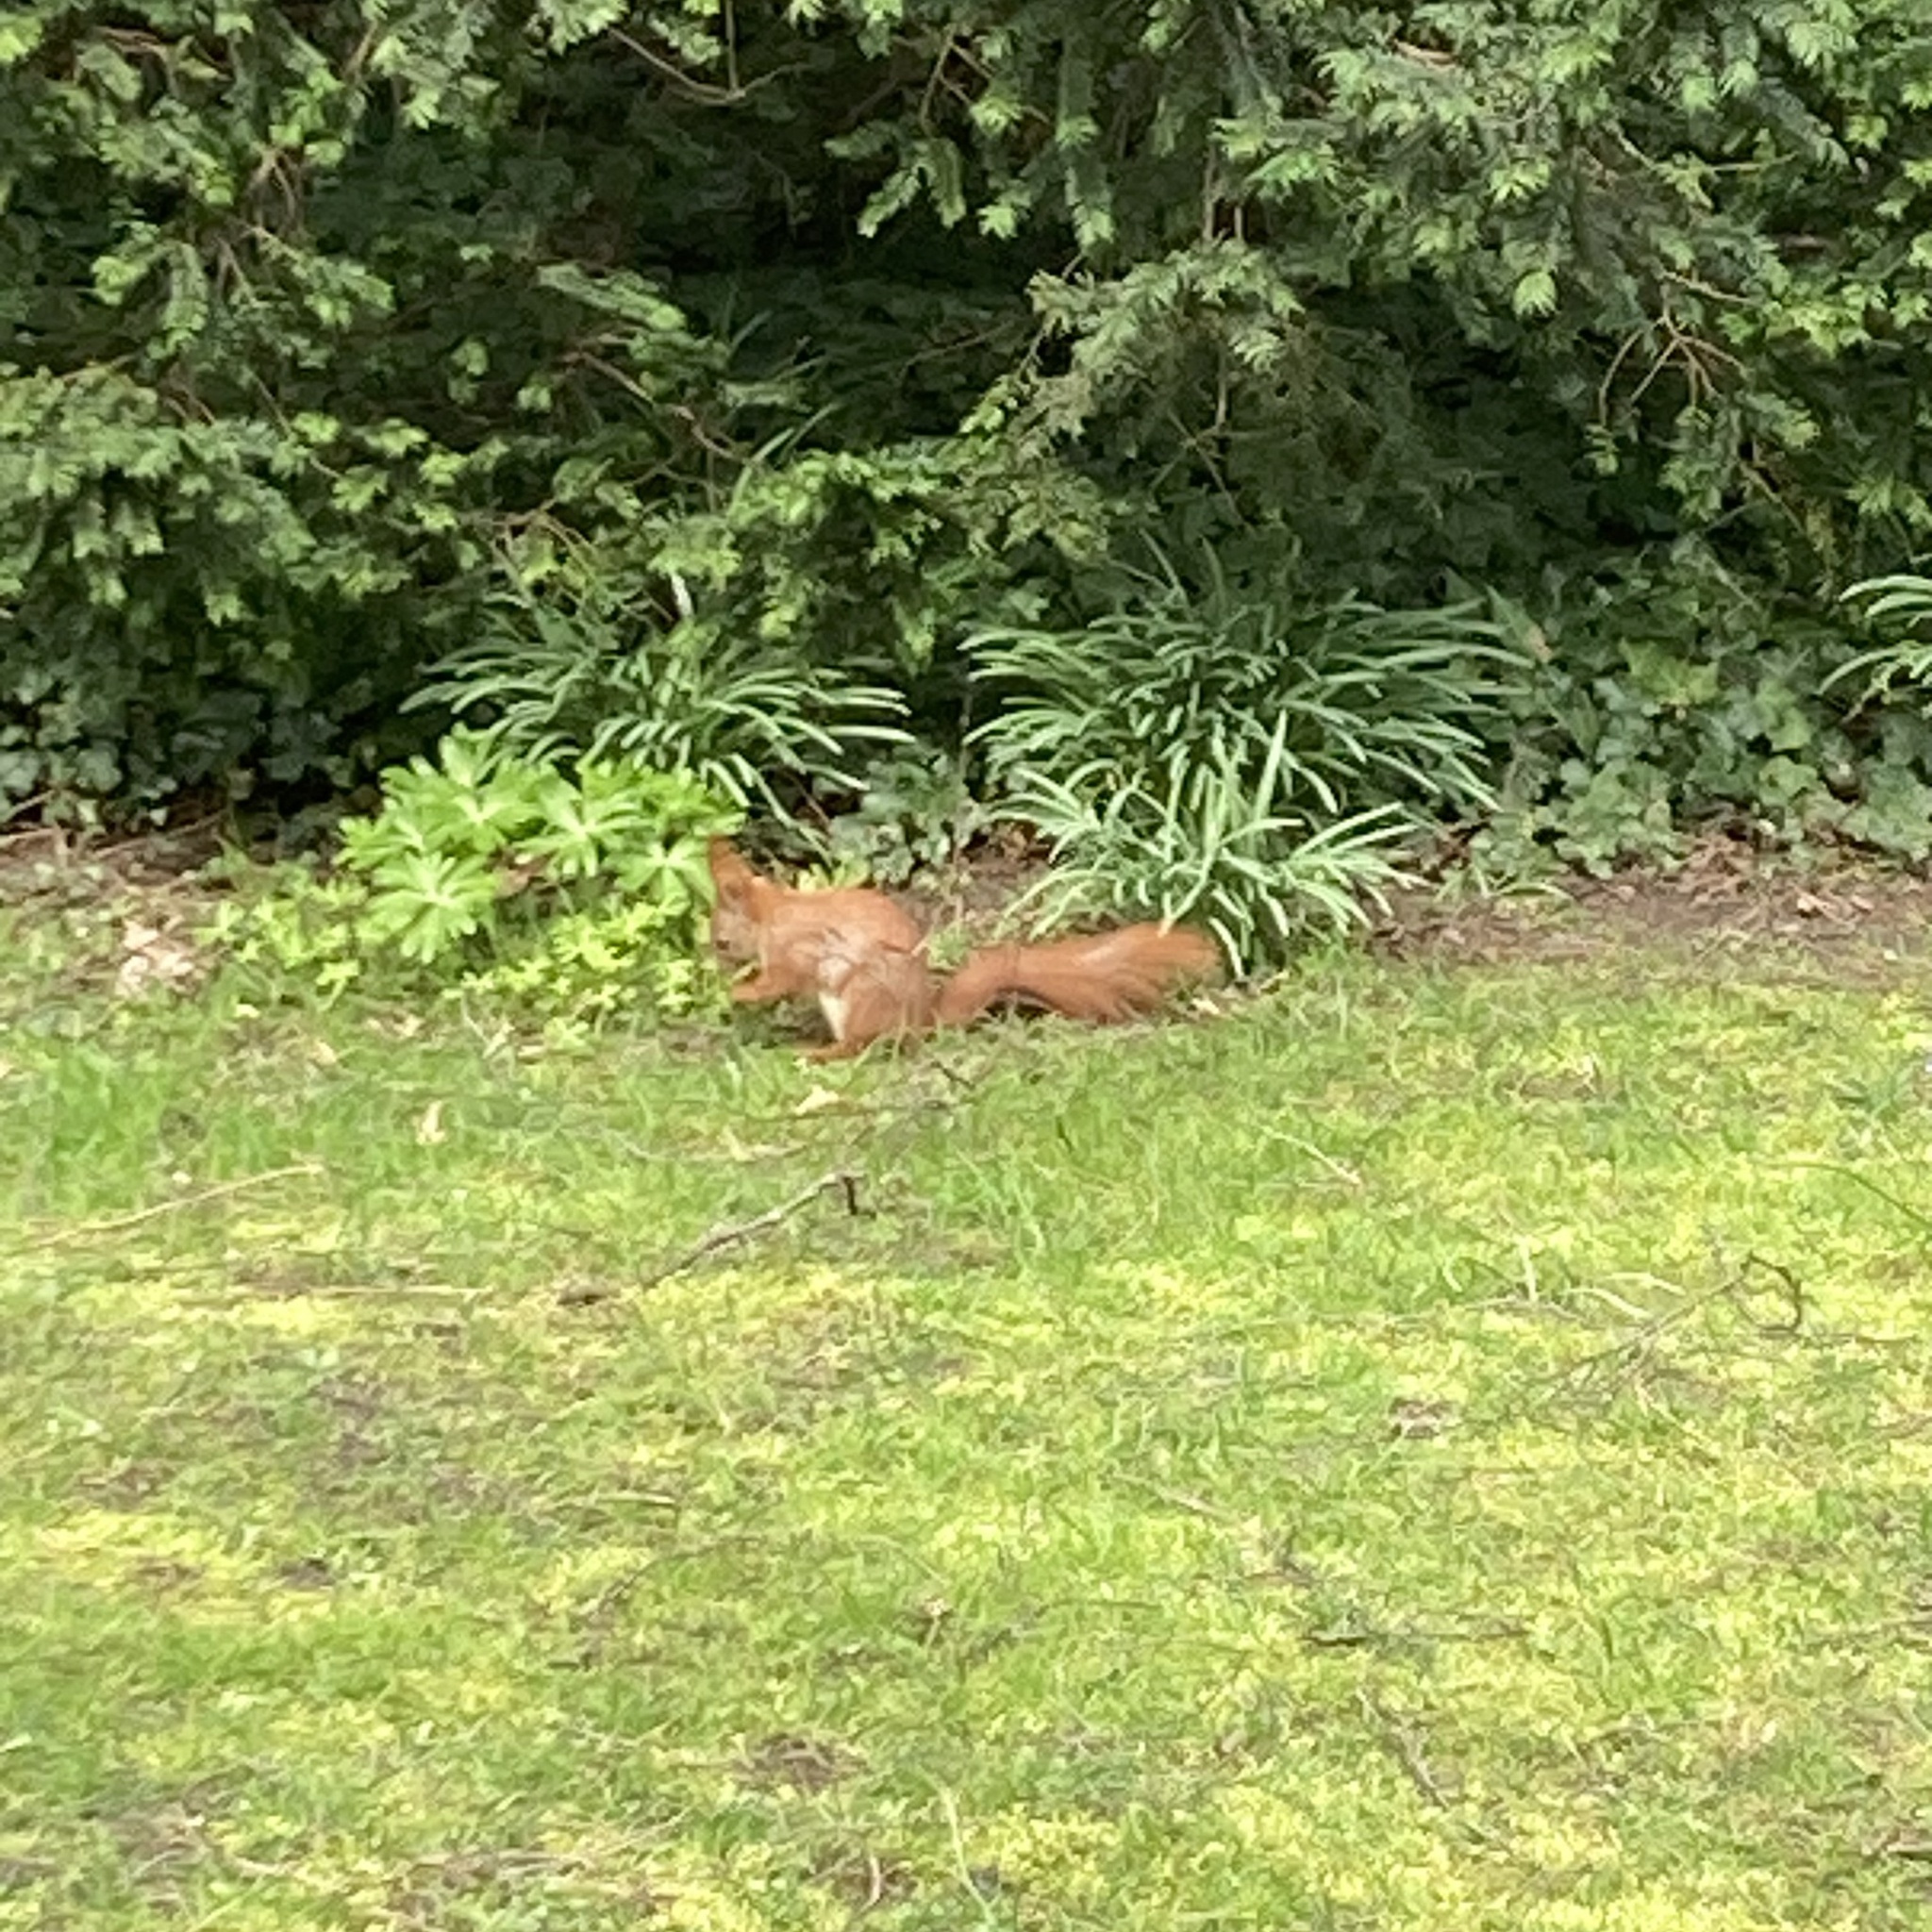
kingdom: Animalia
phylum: Chordata
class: Mammalia
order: Rodentia
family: Sciuridae
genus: Sciurus
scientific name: Sciurus vulgaris
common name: Eurasian red squirrel
